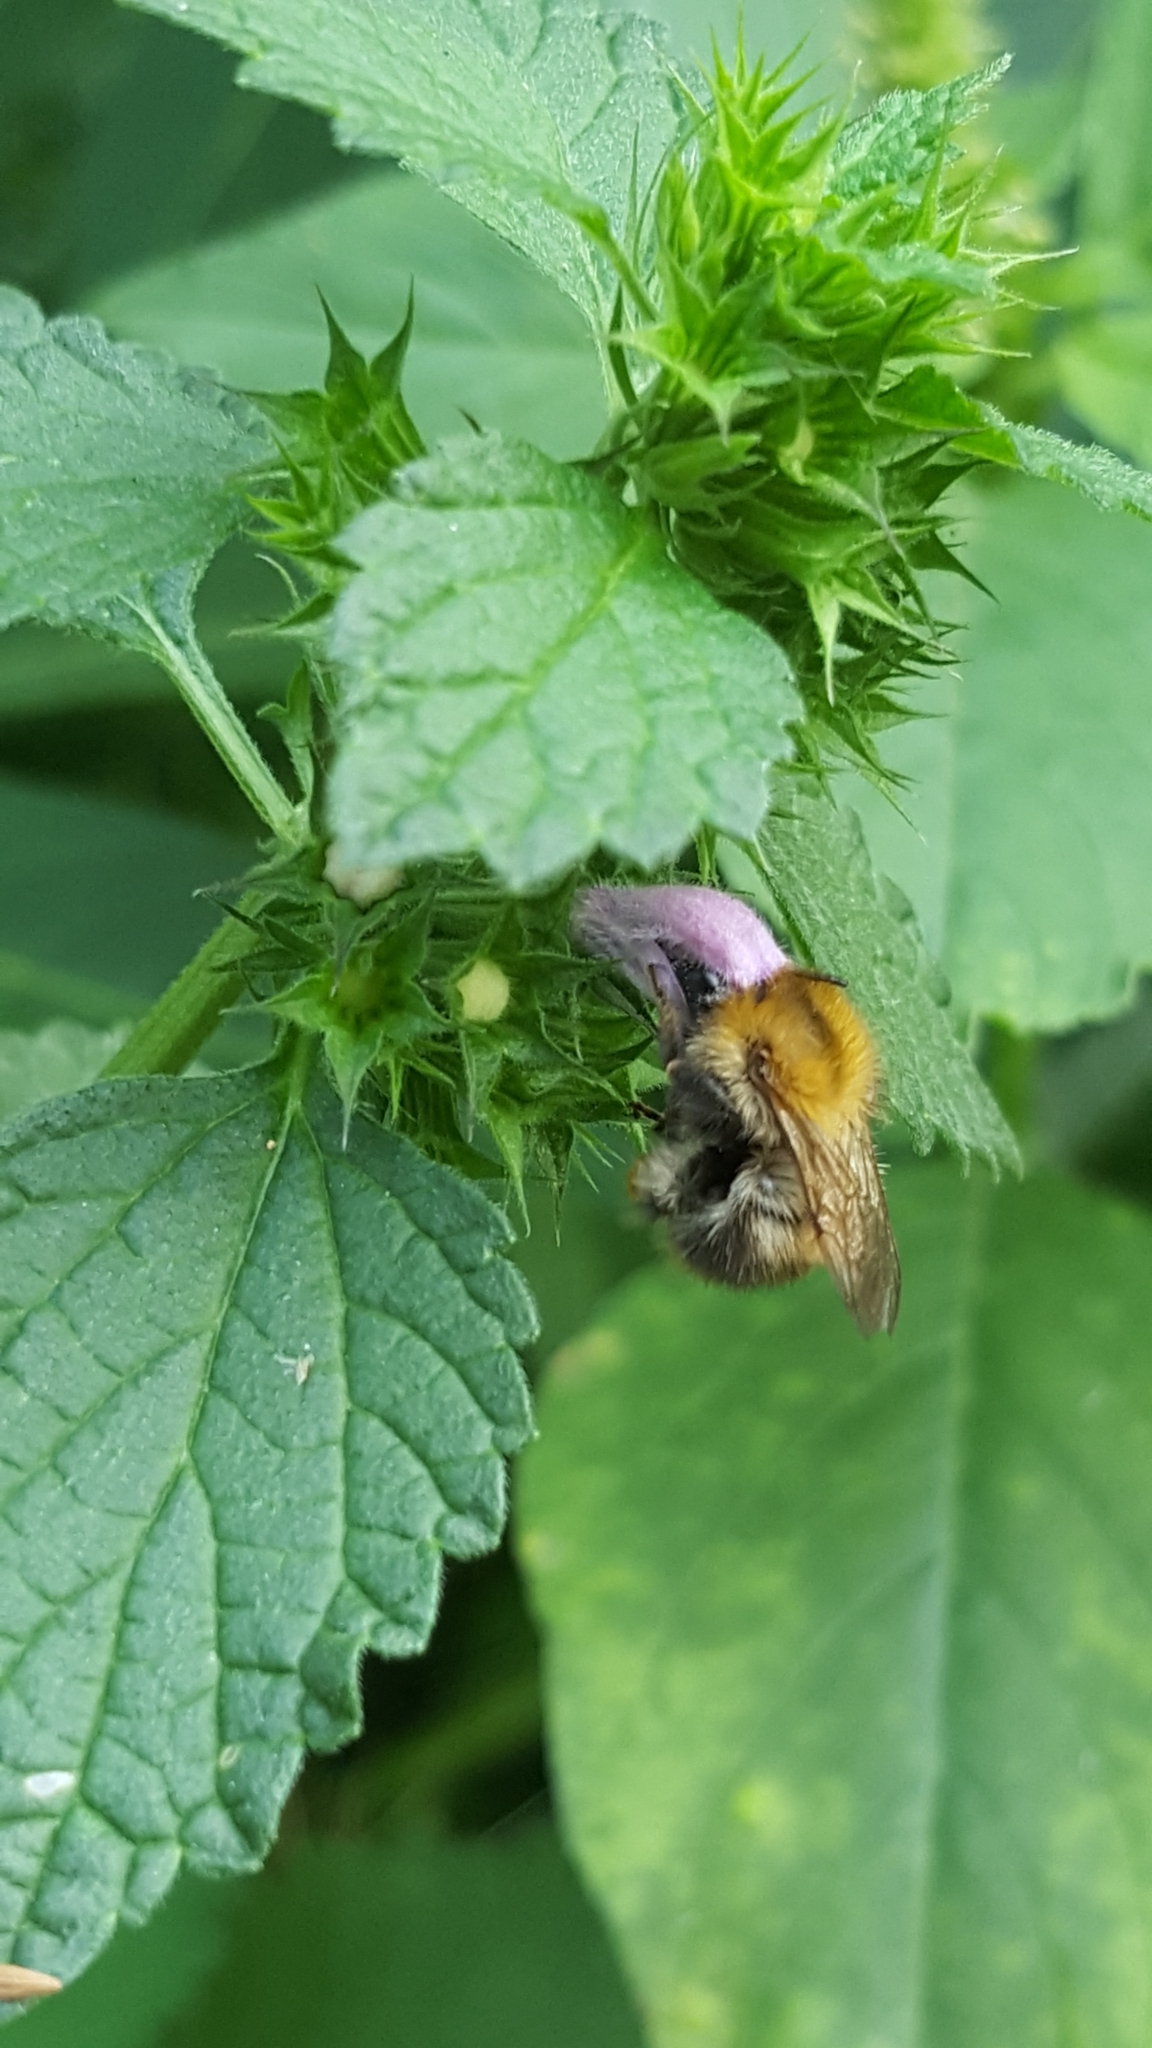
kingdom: Animalia
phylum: Arthropoda
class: Insecta
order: Hymenoptera
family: Apidae
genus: Bombus
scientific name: Bombus pascuorum
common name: Common carder bee
